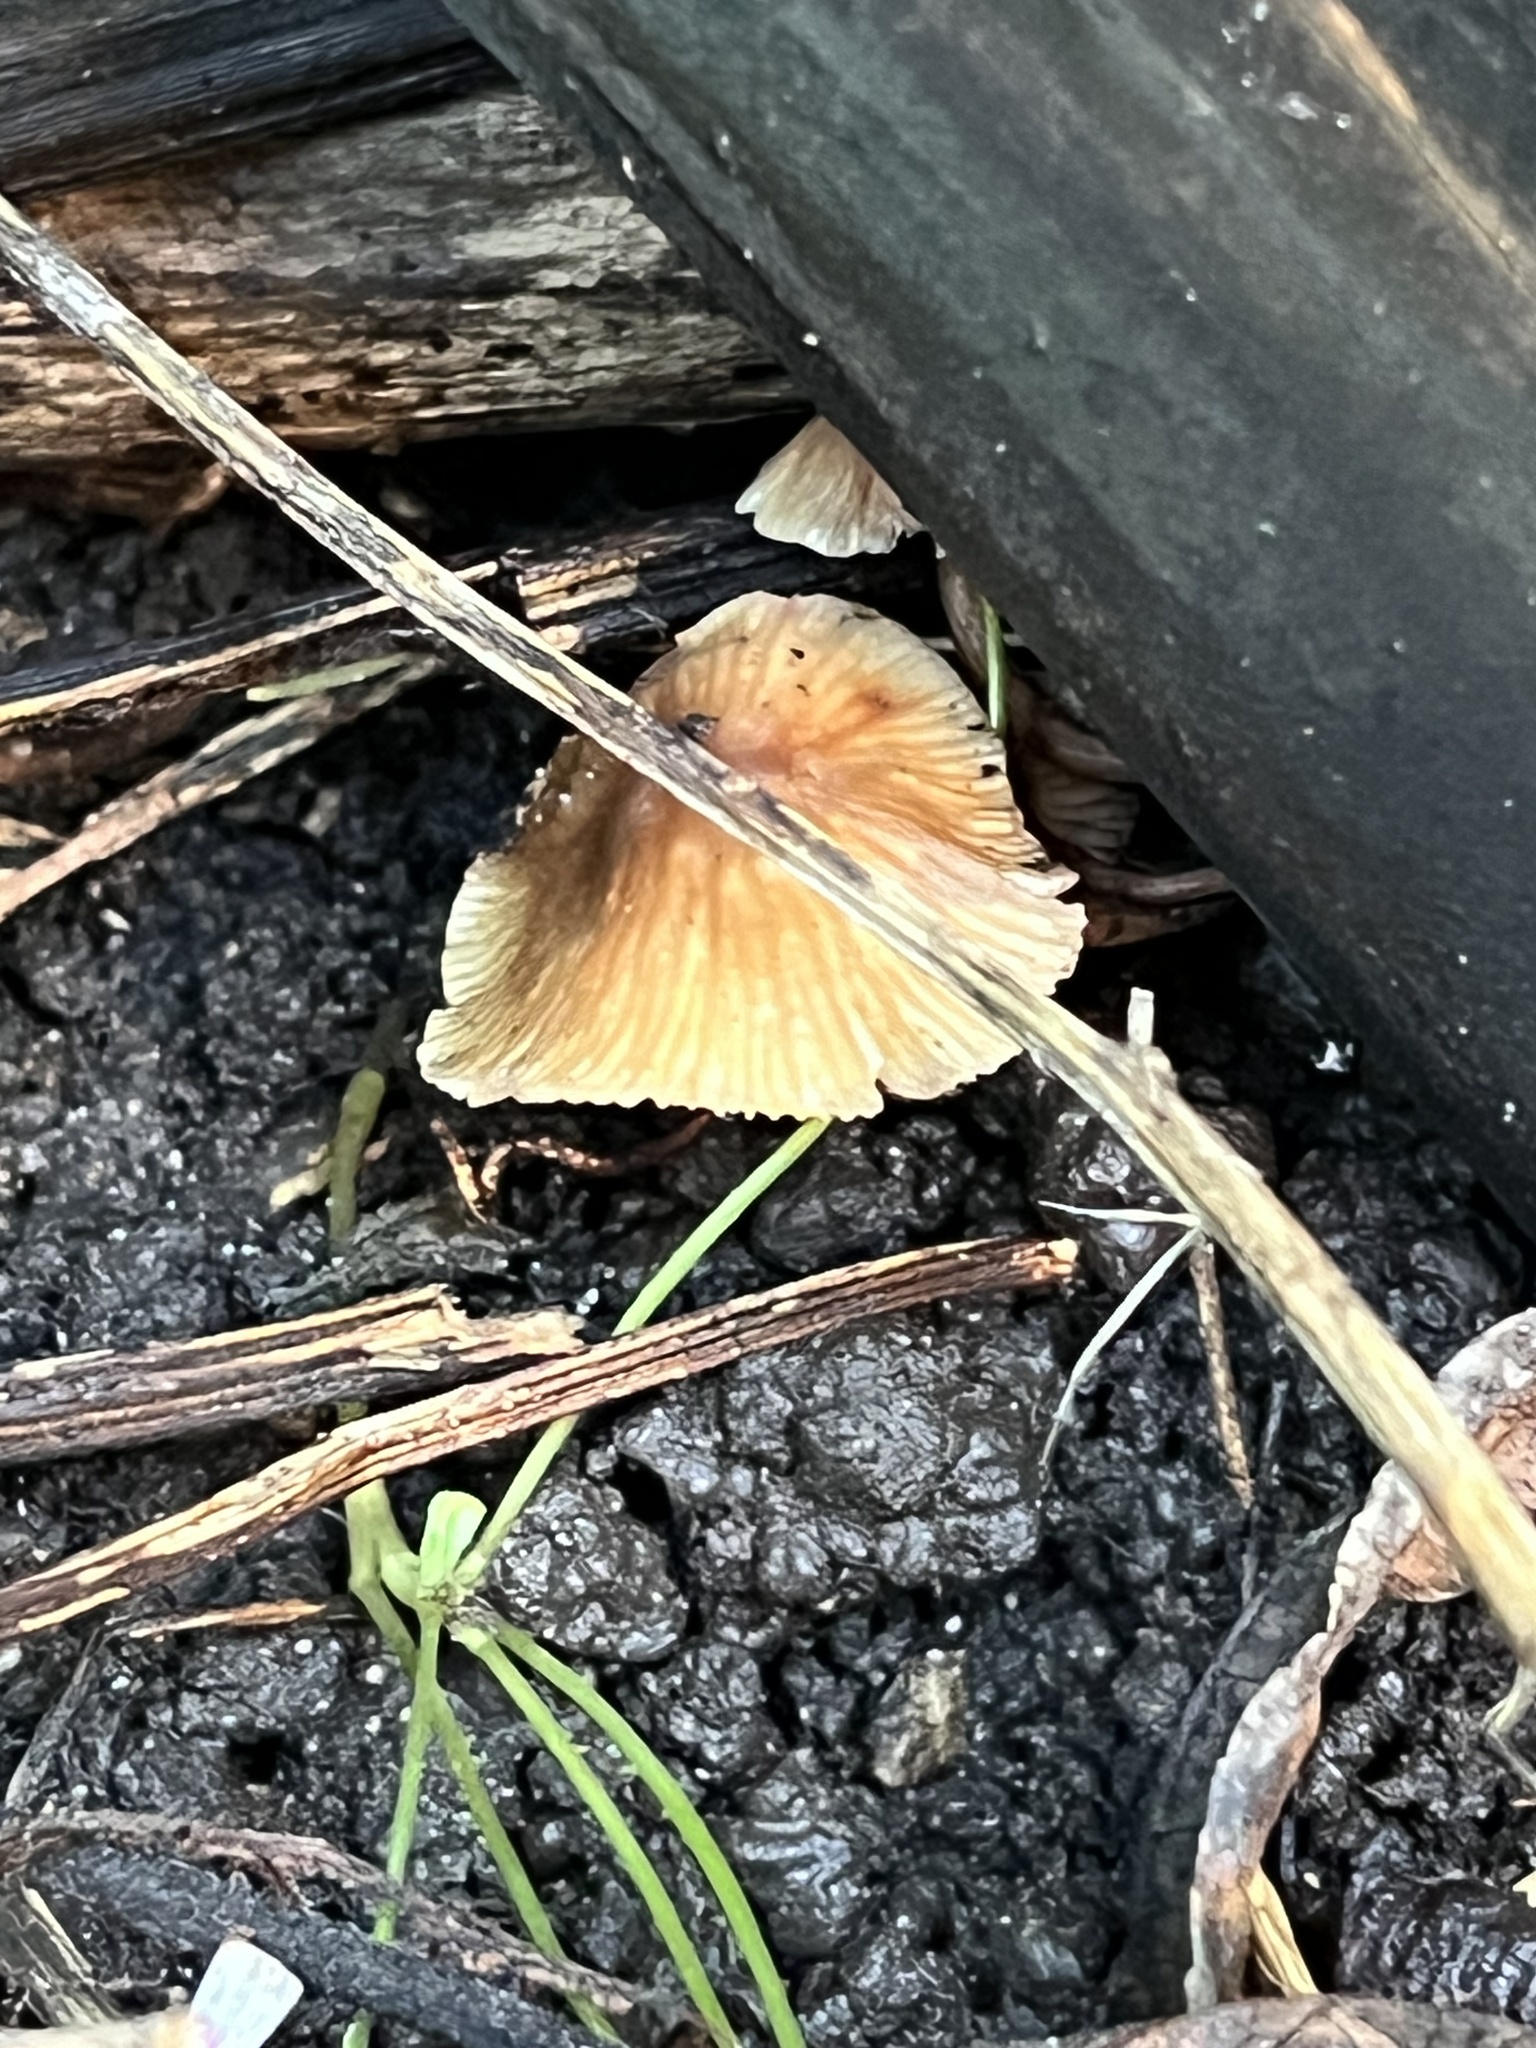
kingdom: Fungi
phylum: Basidiomycota
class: Agaricomycetes
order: Agaricales
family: Omphalotaceae
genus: Collybiopsis
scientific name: Collybiopsis subpruinosa
